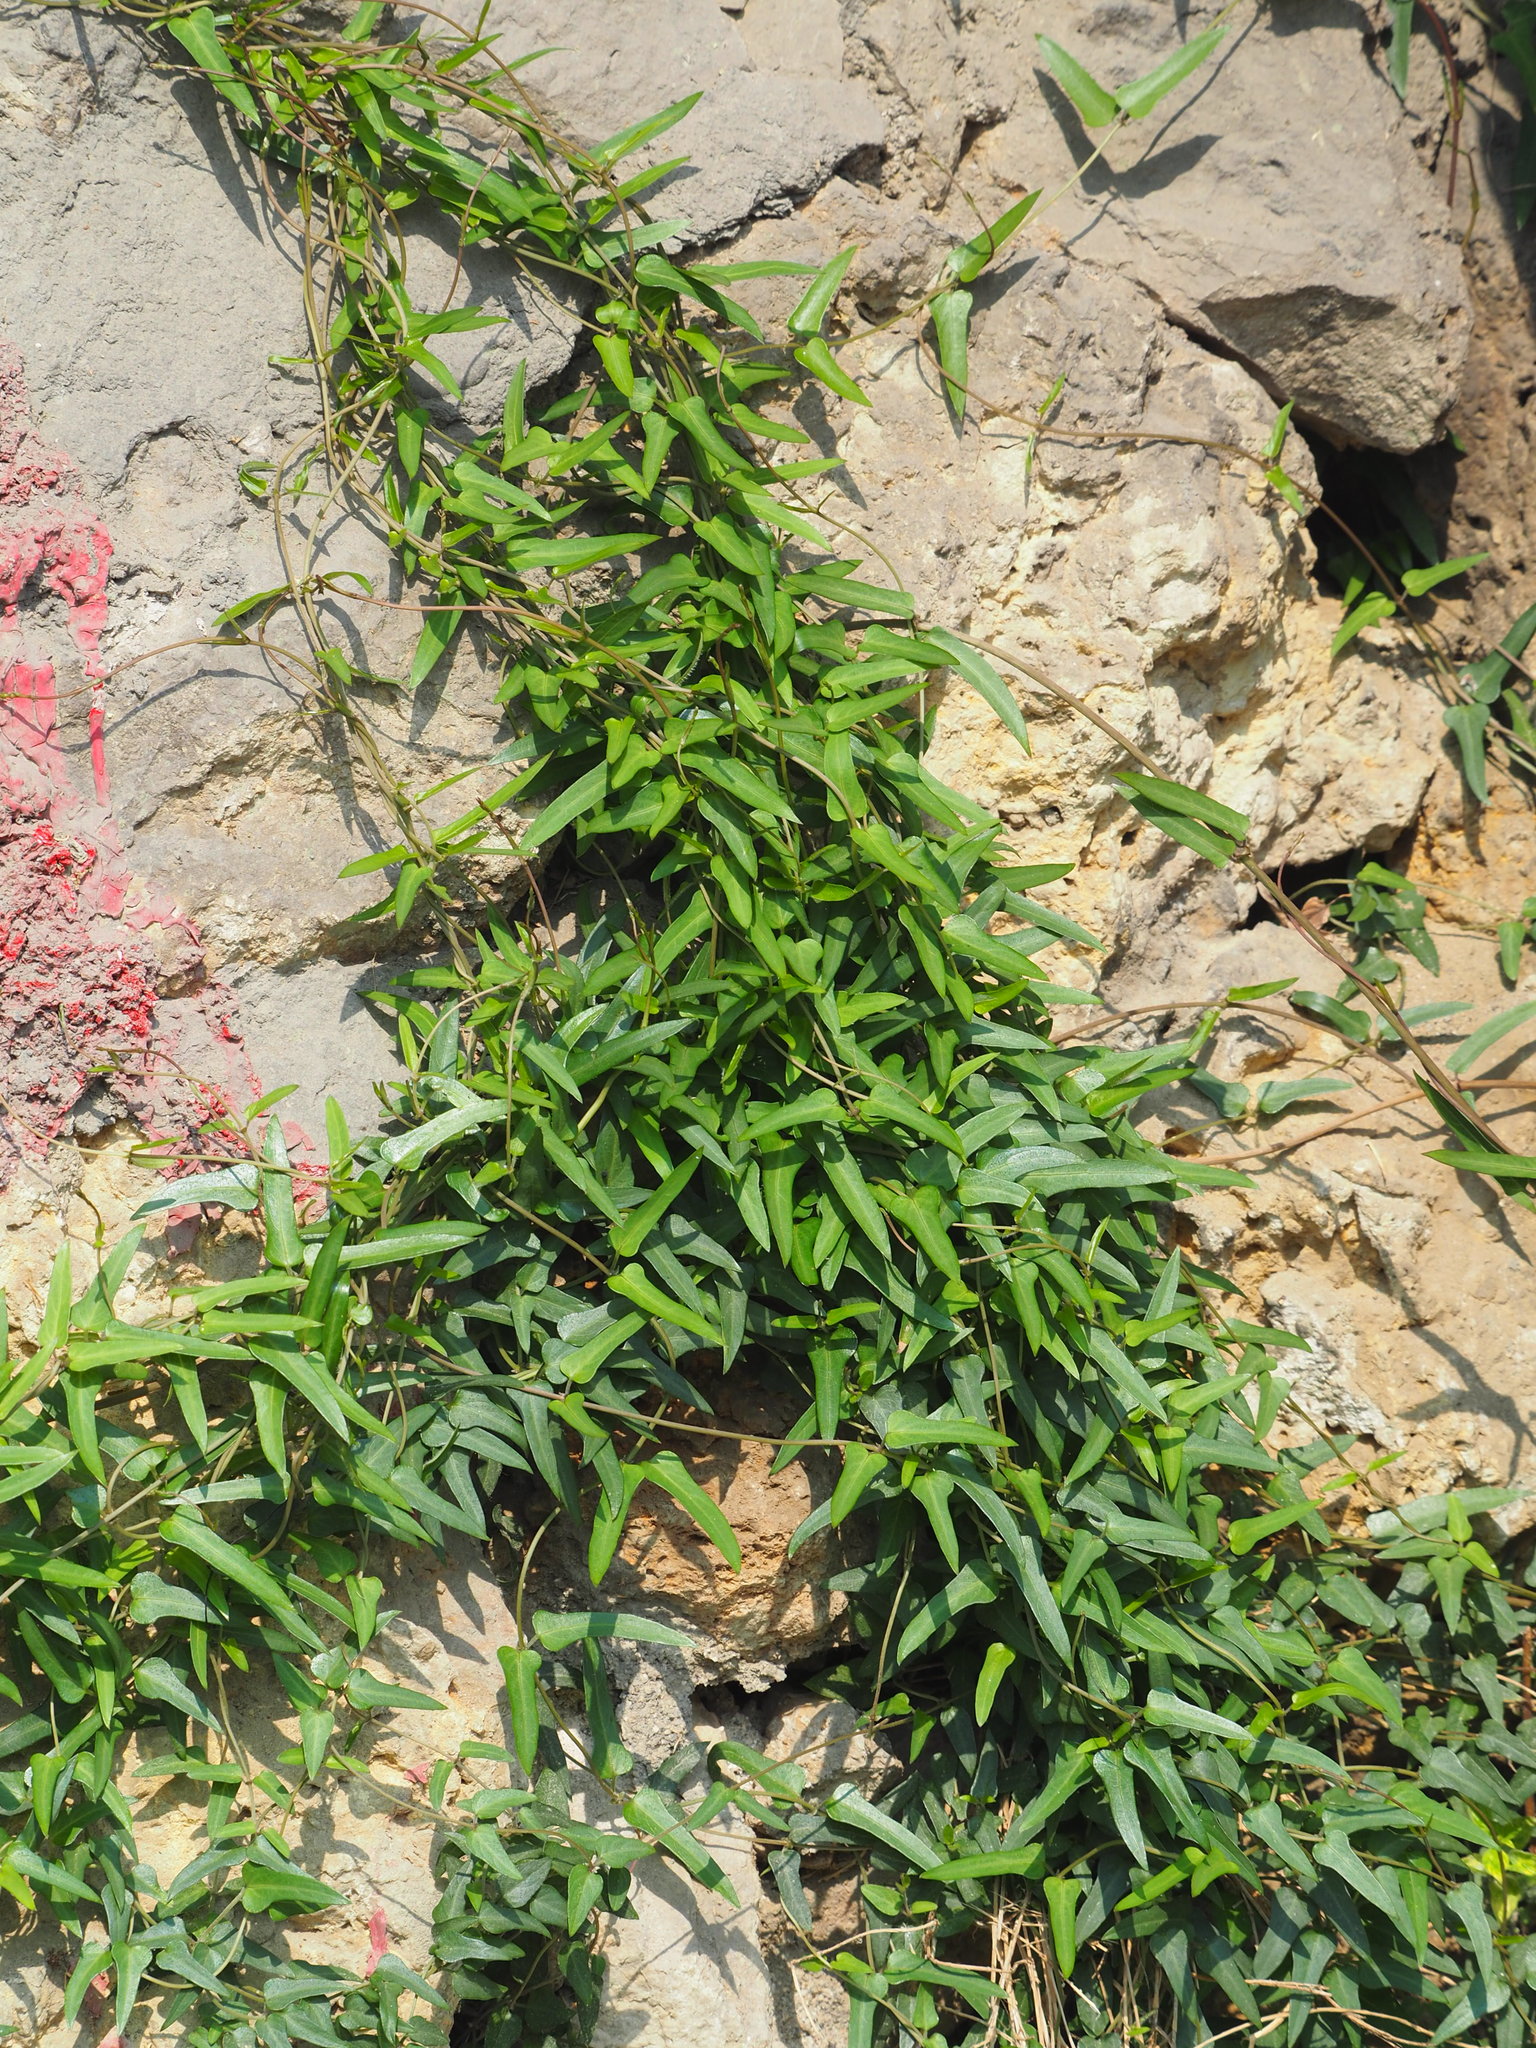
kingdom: Plantae
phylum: Tracheophyta
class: Magnoliopsida
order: Gentianales
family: Rubiaceae
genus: Paederia
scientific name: Paederia foetida
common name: Stinkvine
